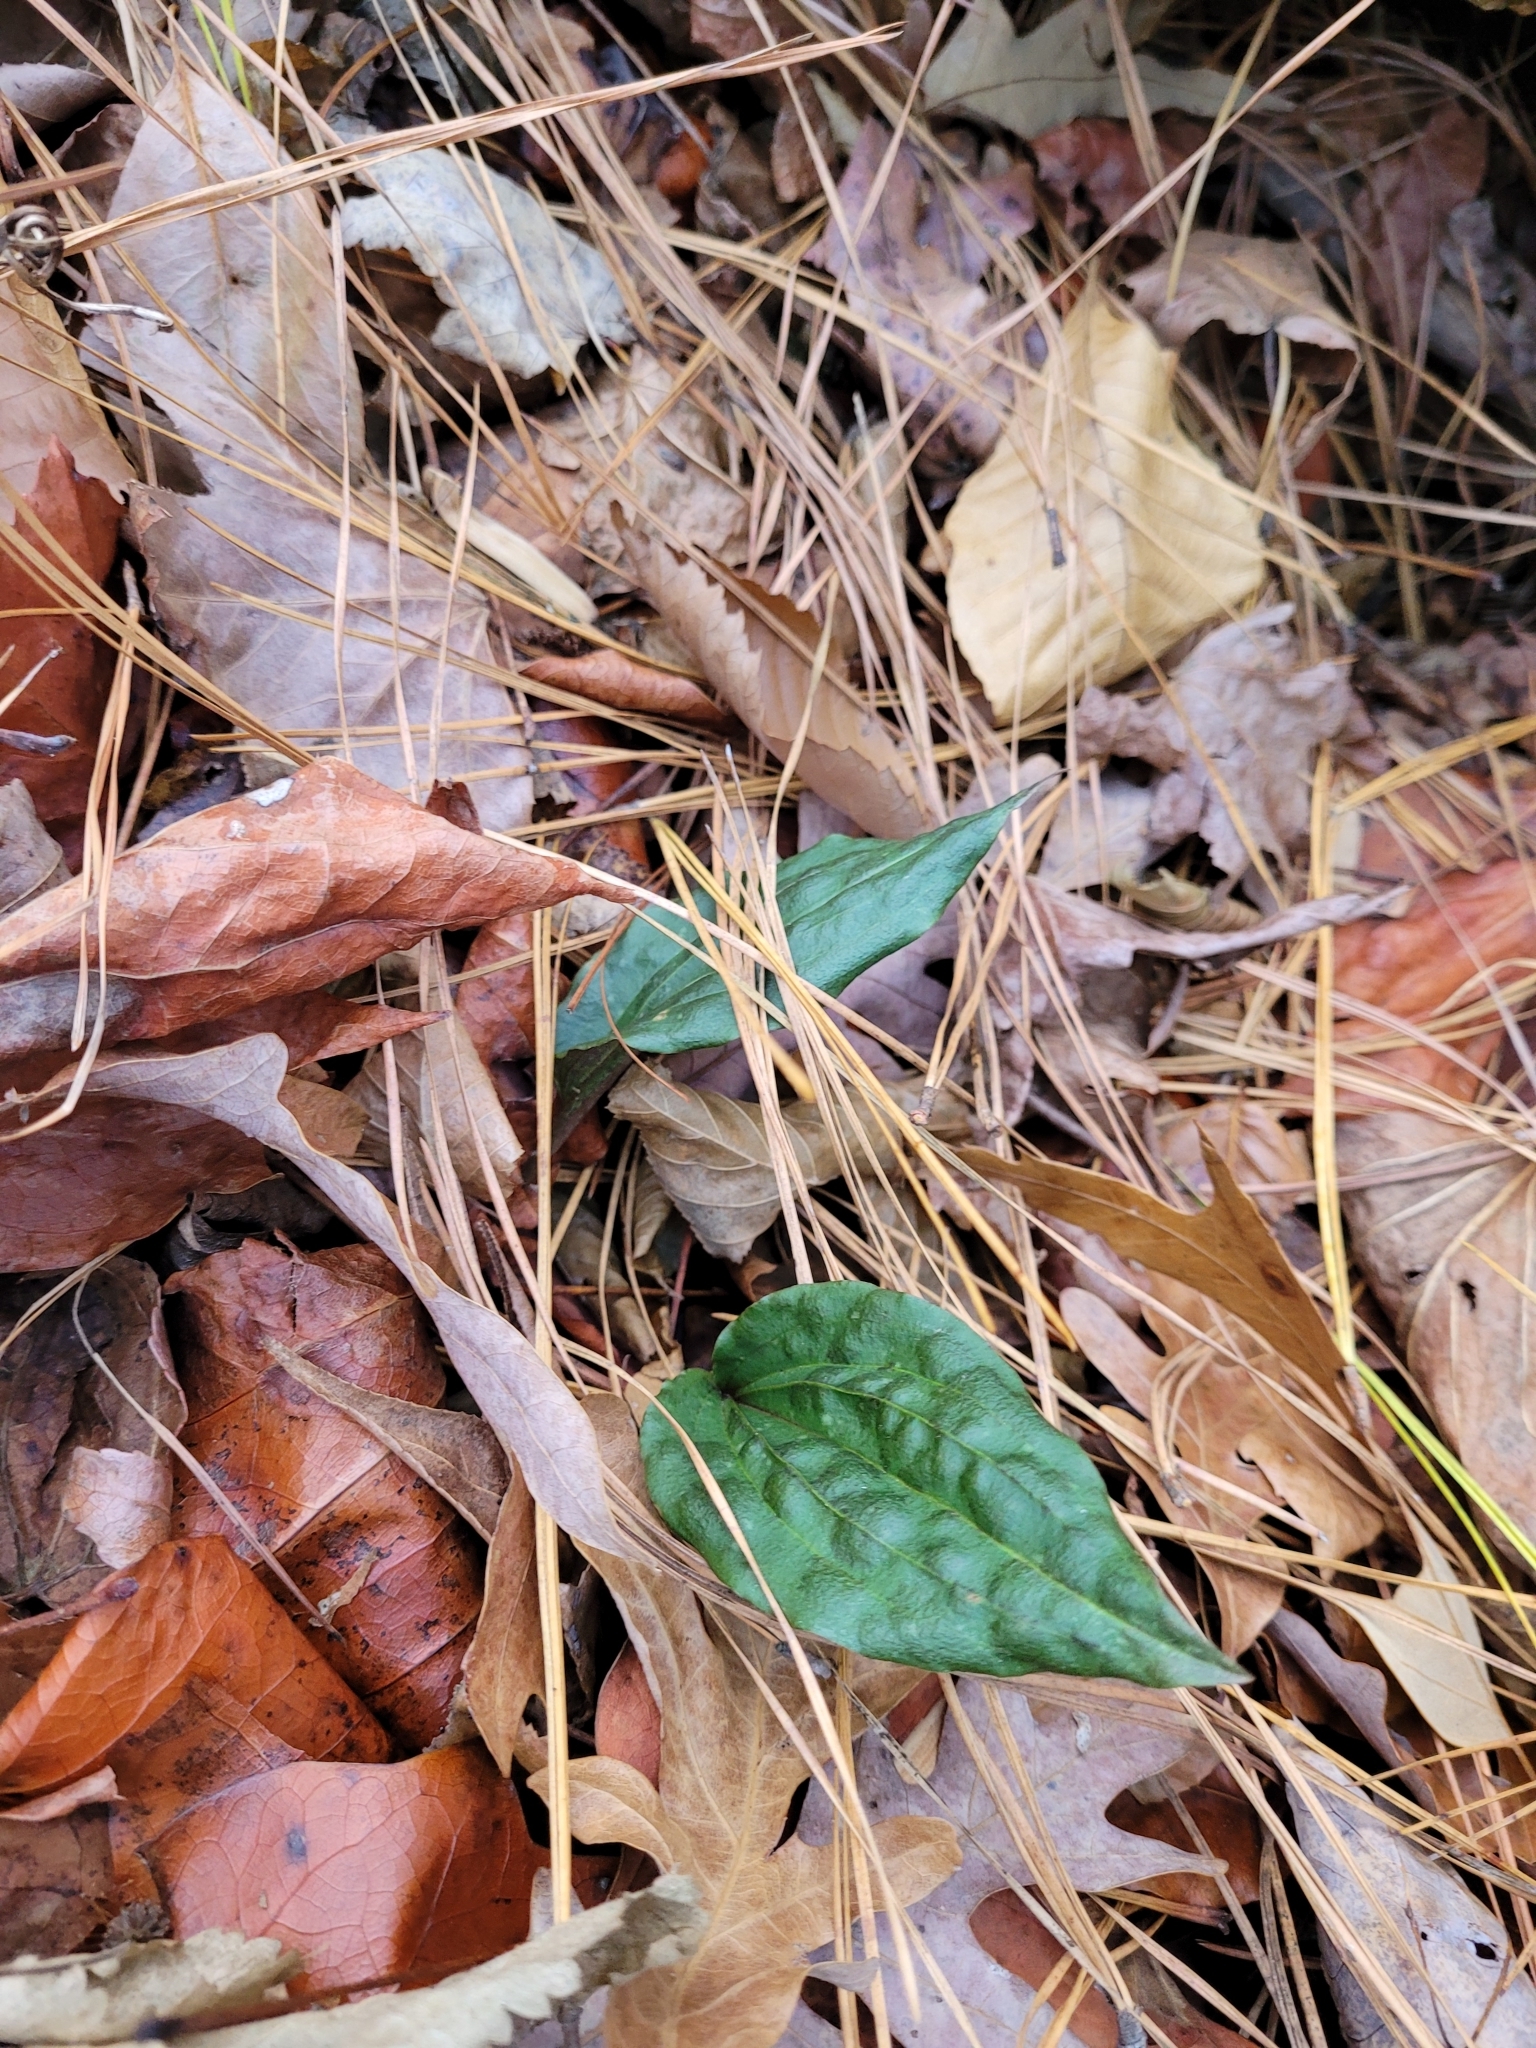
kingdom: Plantae
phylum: Tracheophyta
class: Liliopsida
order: Asparagales
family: Orchidaceae
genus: Tipularia
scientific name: Tipularia discolor
